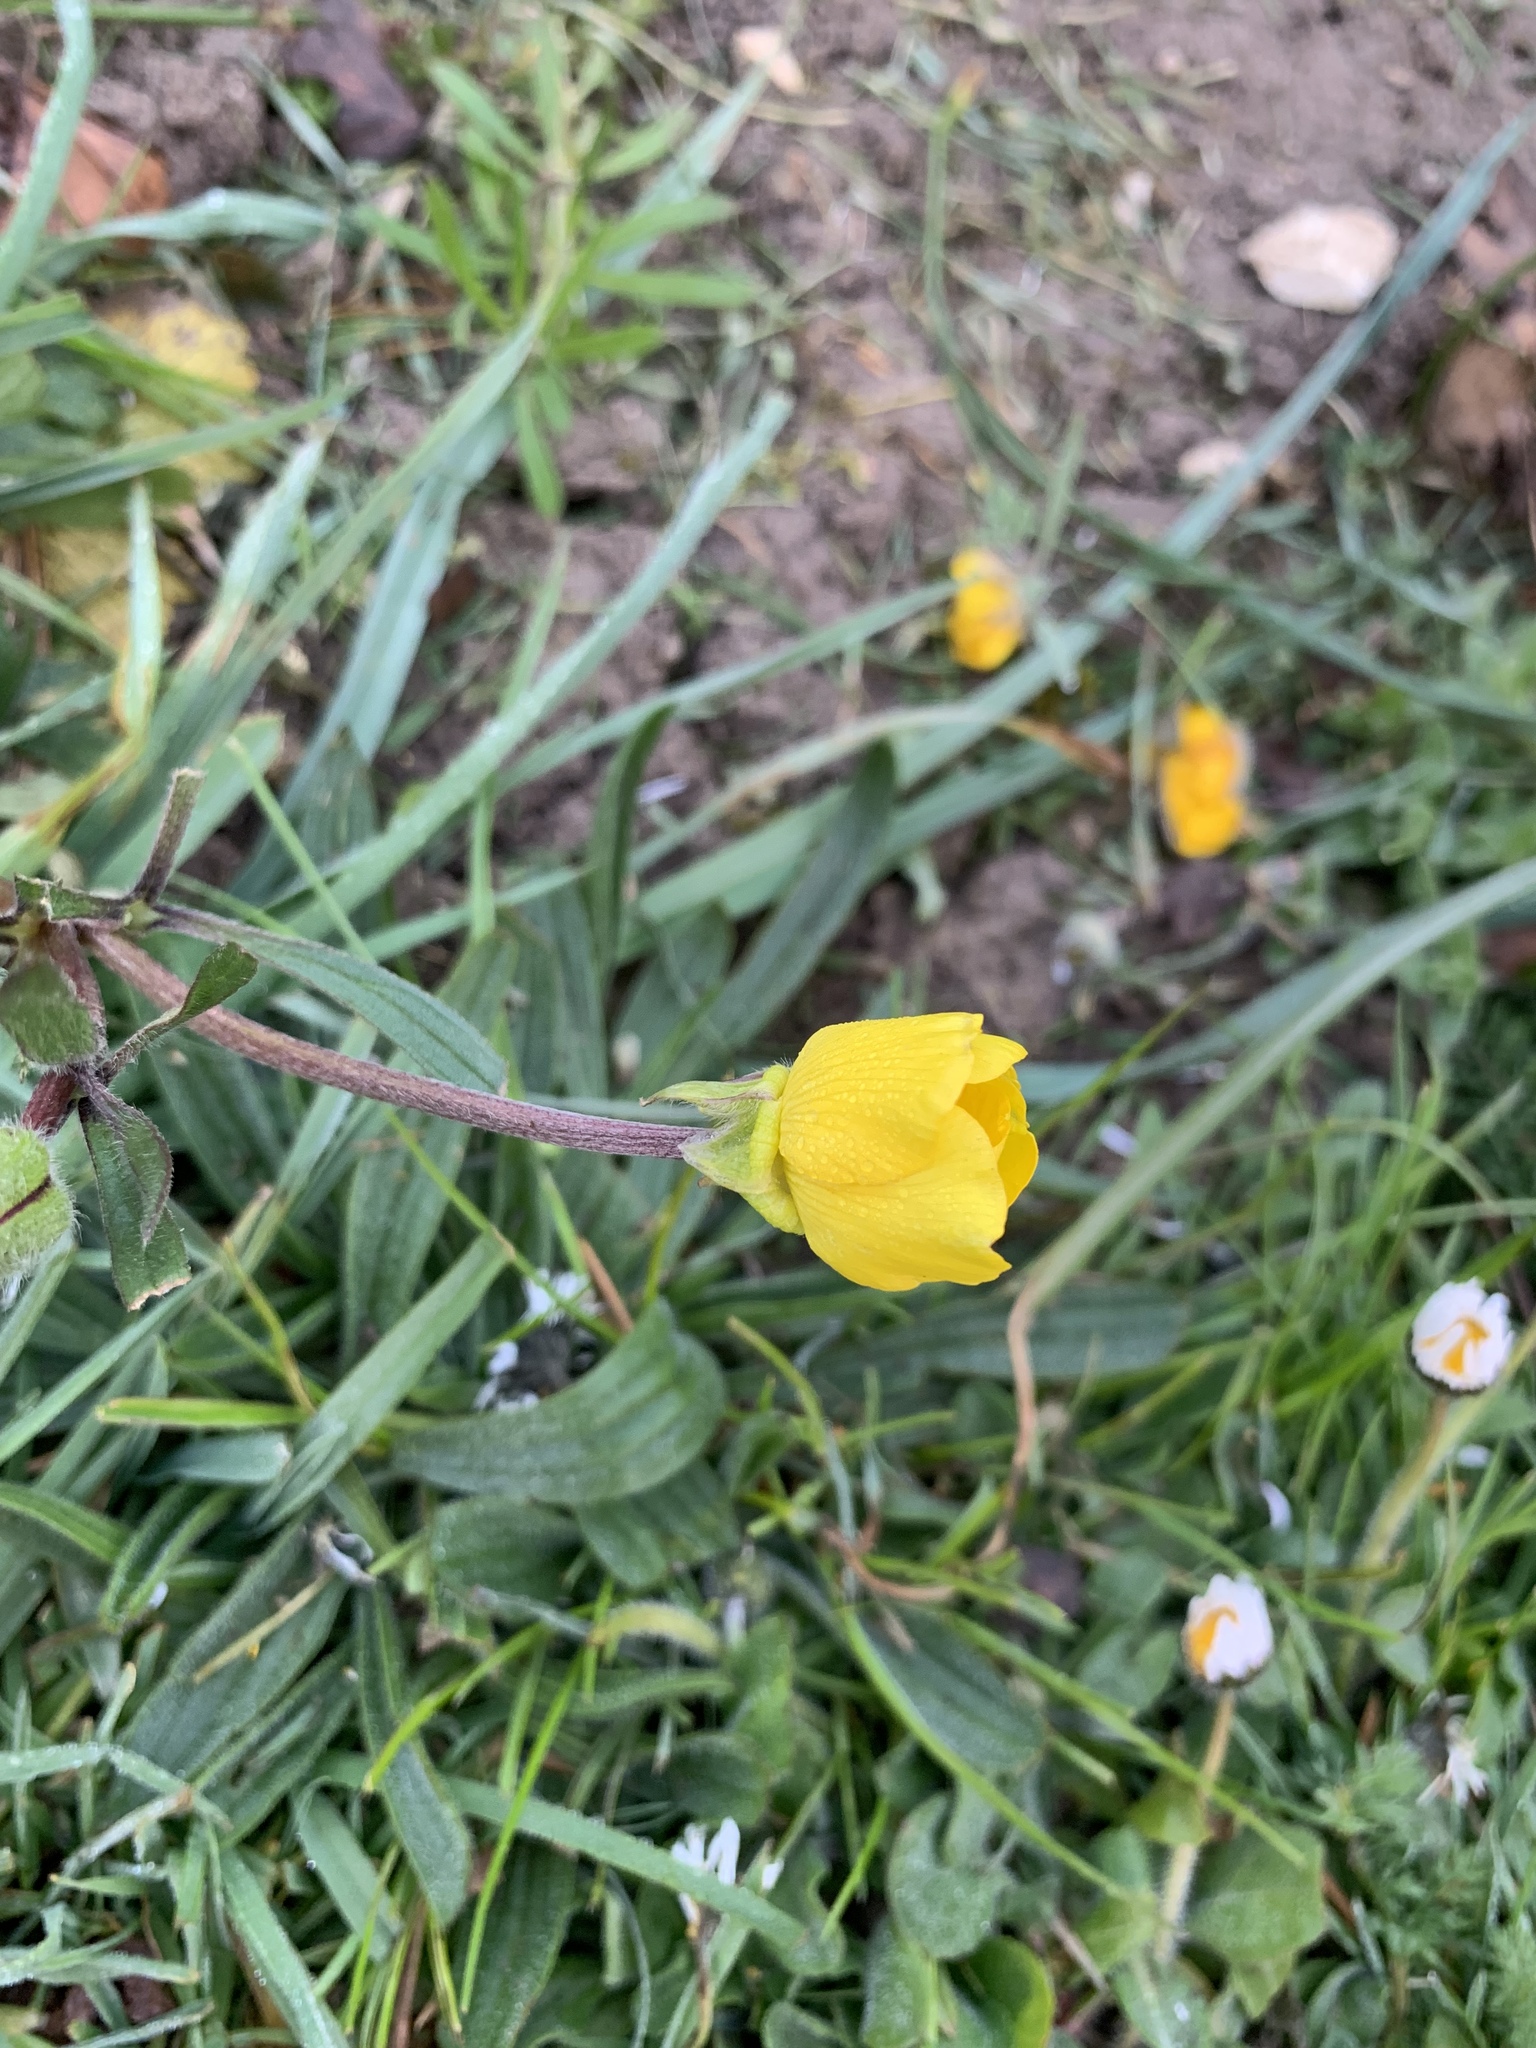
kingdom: Plantae
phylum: Tracheophyta
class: Magnoliopsida
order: Ranunculales
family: Ranunculaceae
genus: Ranunculus
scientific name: Ranunculus bulbosus
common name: Bulbous buttercup
